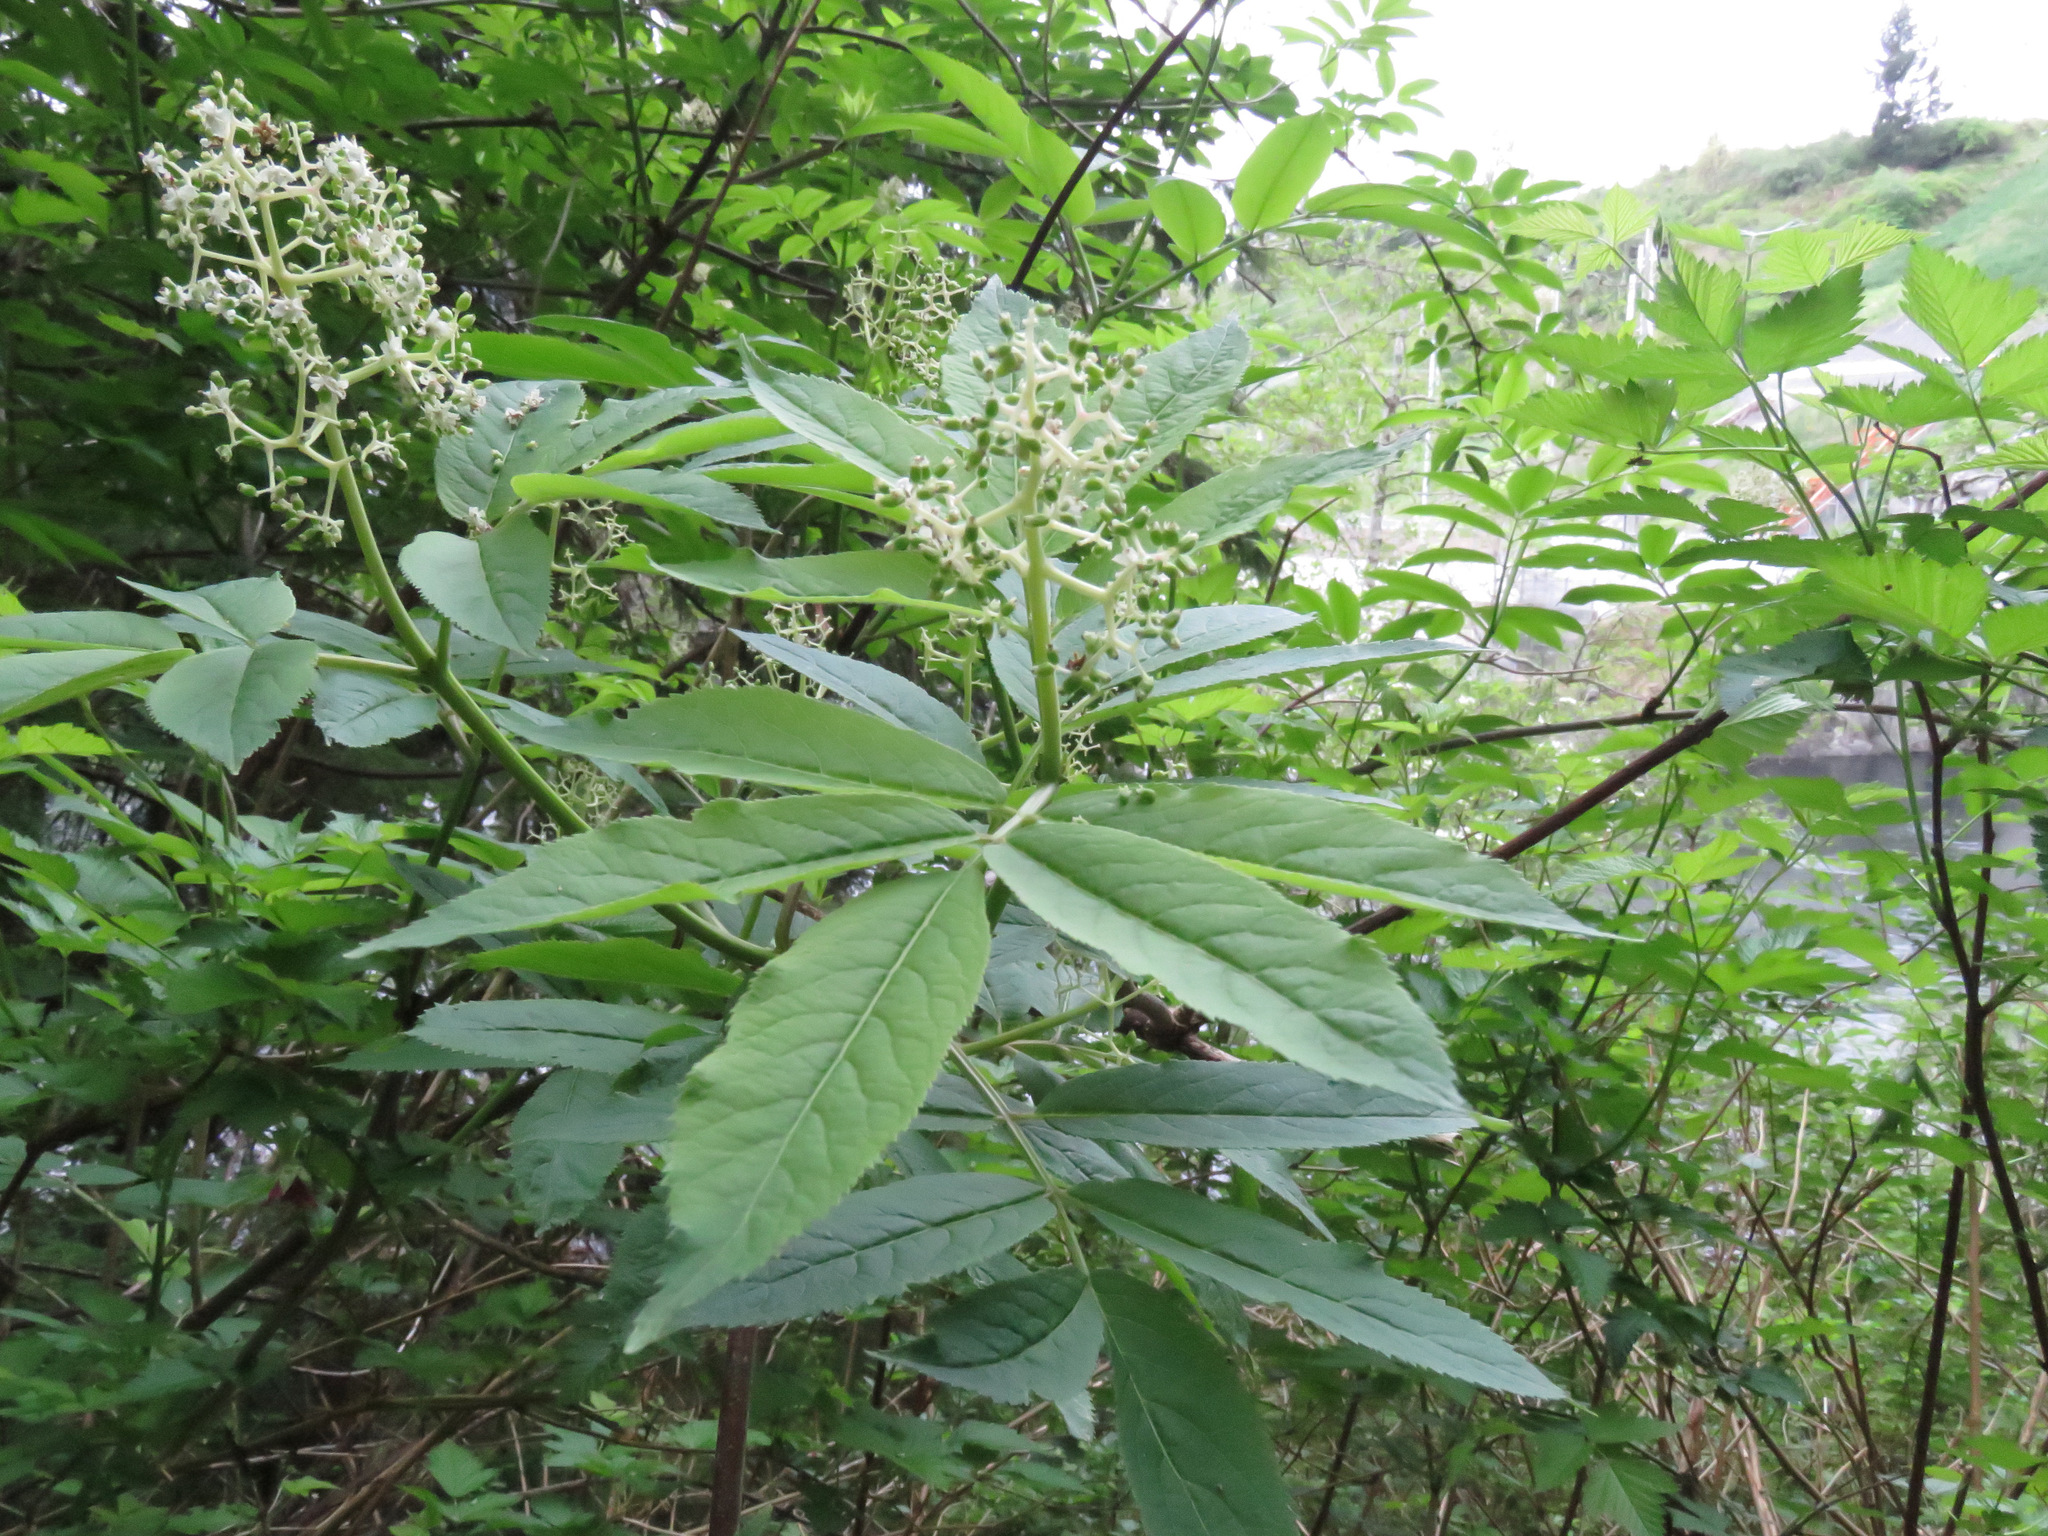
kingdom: Plantae
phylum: Tracheophyta
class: Magnoliopsida
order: Dipsacales
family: Viburnaceae
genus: Sambucus
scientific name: Sambucus racemosa
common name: Red-berried elder
